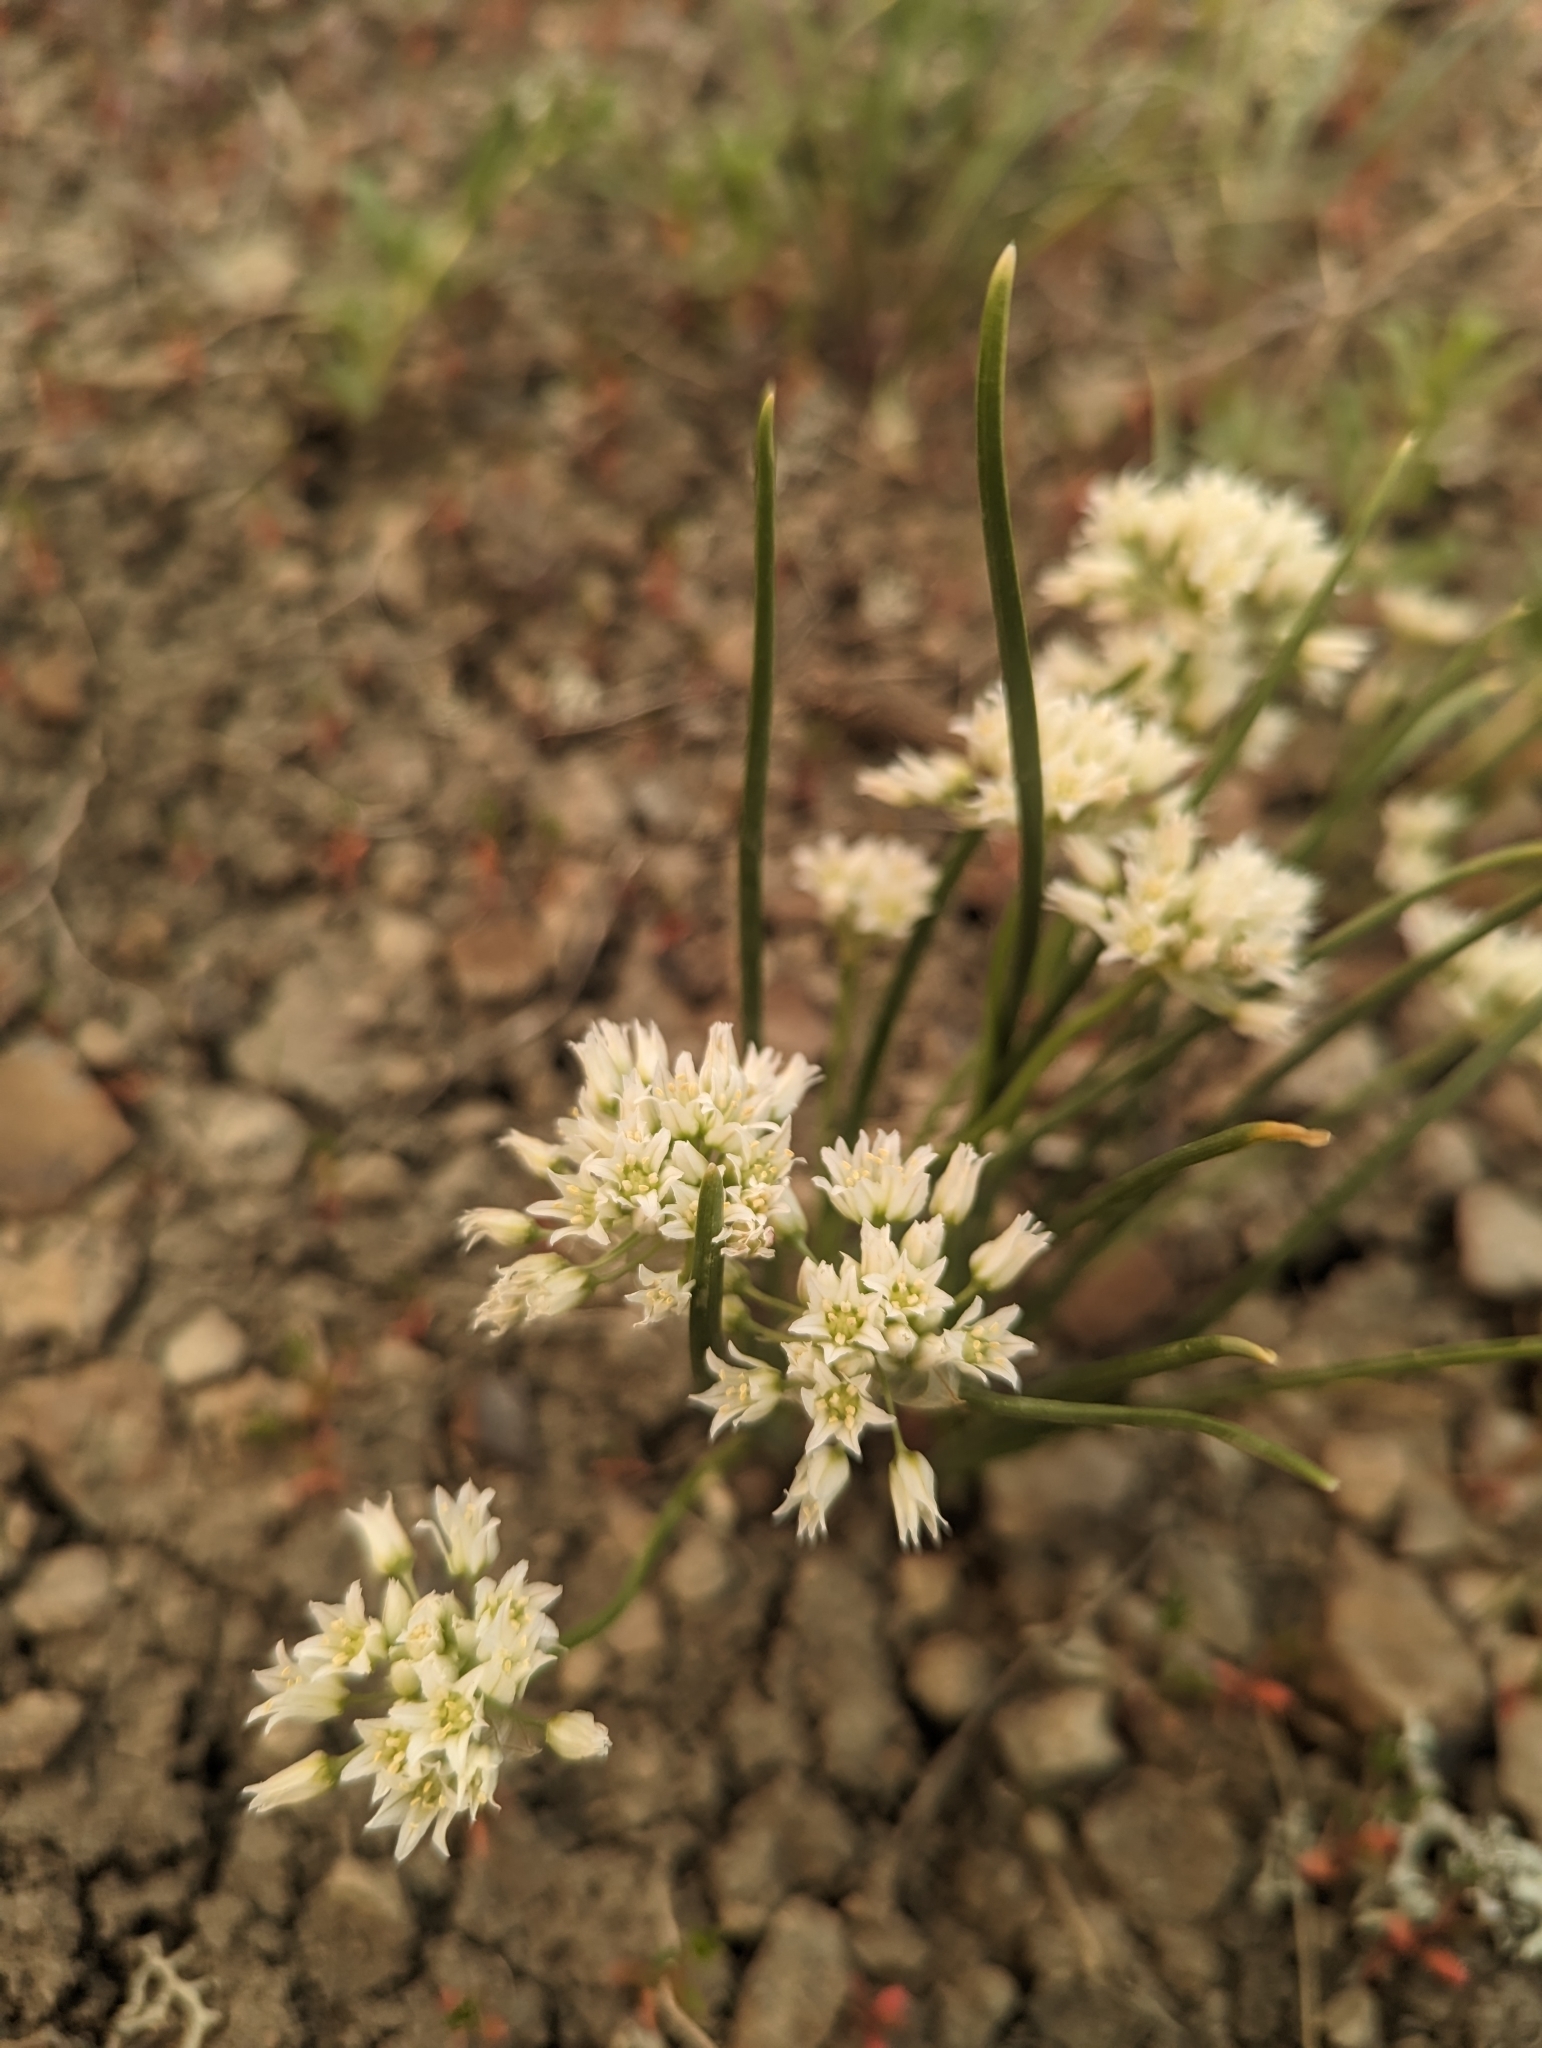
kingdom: Plantae
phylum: Tracheophyta
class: Liliopsida
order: Asparagales
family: Amaryllidaceae
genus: Allium
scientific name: Allium textile
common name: Prairie onion
